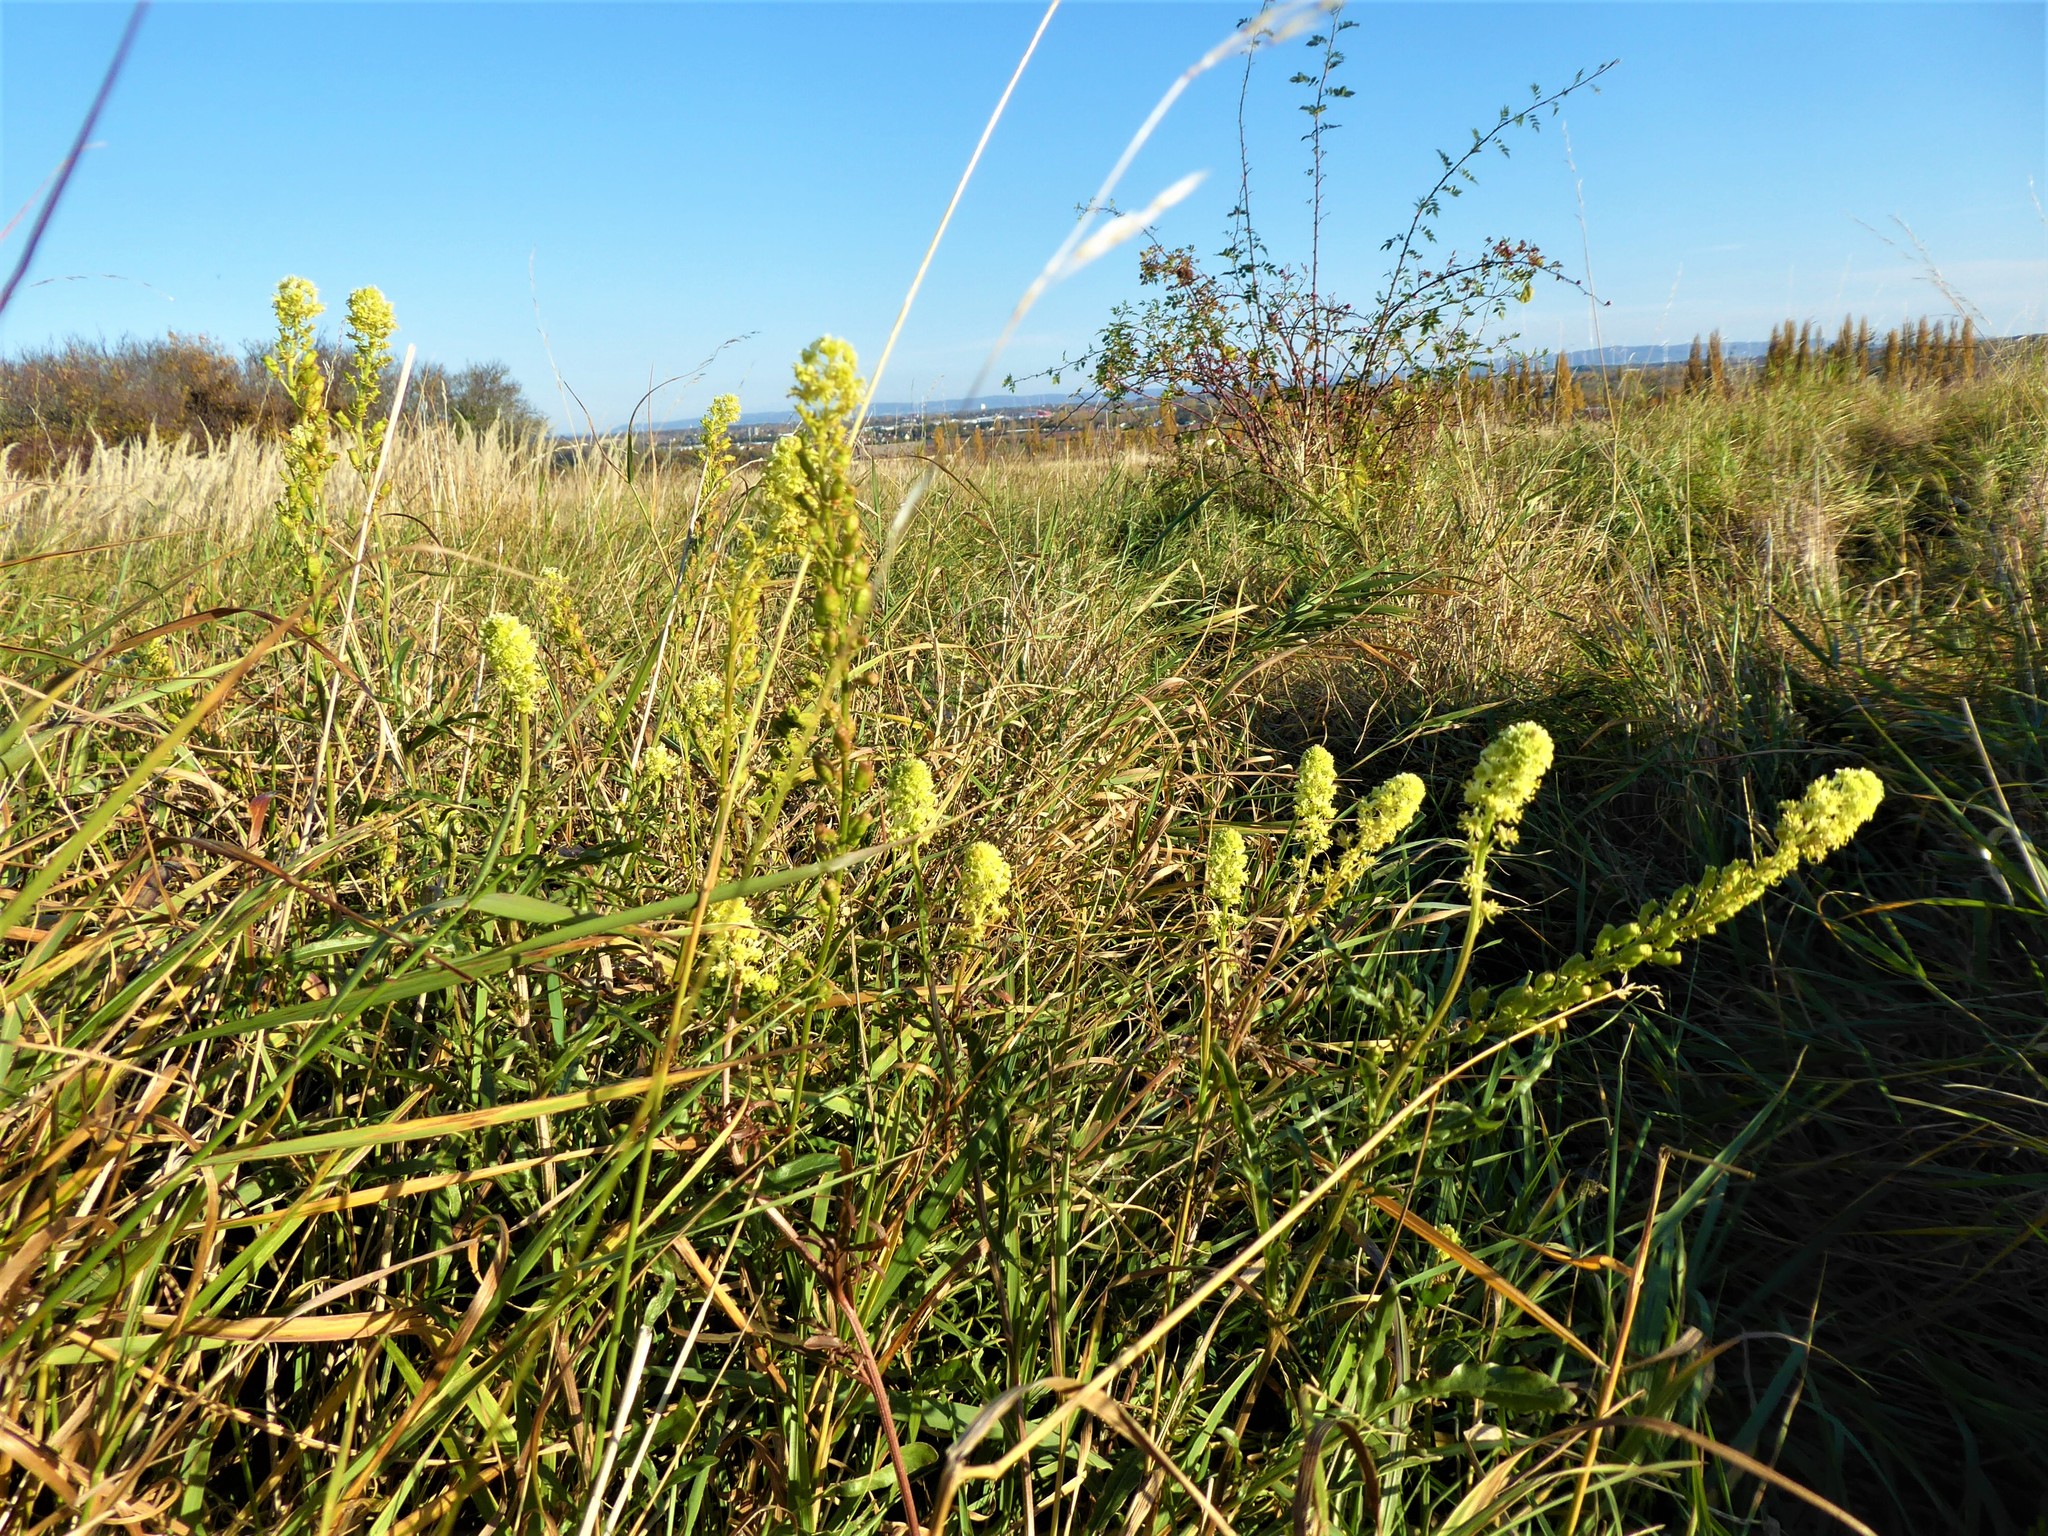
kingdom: Plantae
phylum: Tracheophyta
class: Magnoliopsida
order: Brassicales
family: Resedaceae
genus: Reseda
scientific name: Reseda lutea
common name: Wild mignonette
